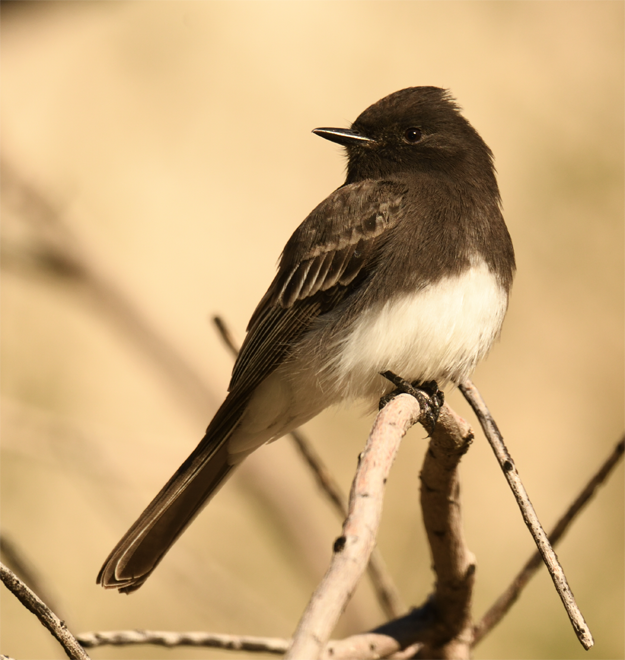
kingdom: Animalia
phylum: Chordata
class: Aves
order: Passeriformes
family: Tyrannidae
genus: Sayornis
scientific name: Sayornis nigricans
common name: Black phoebe
